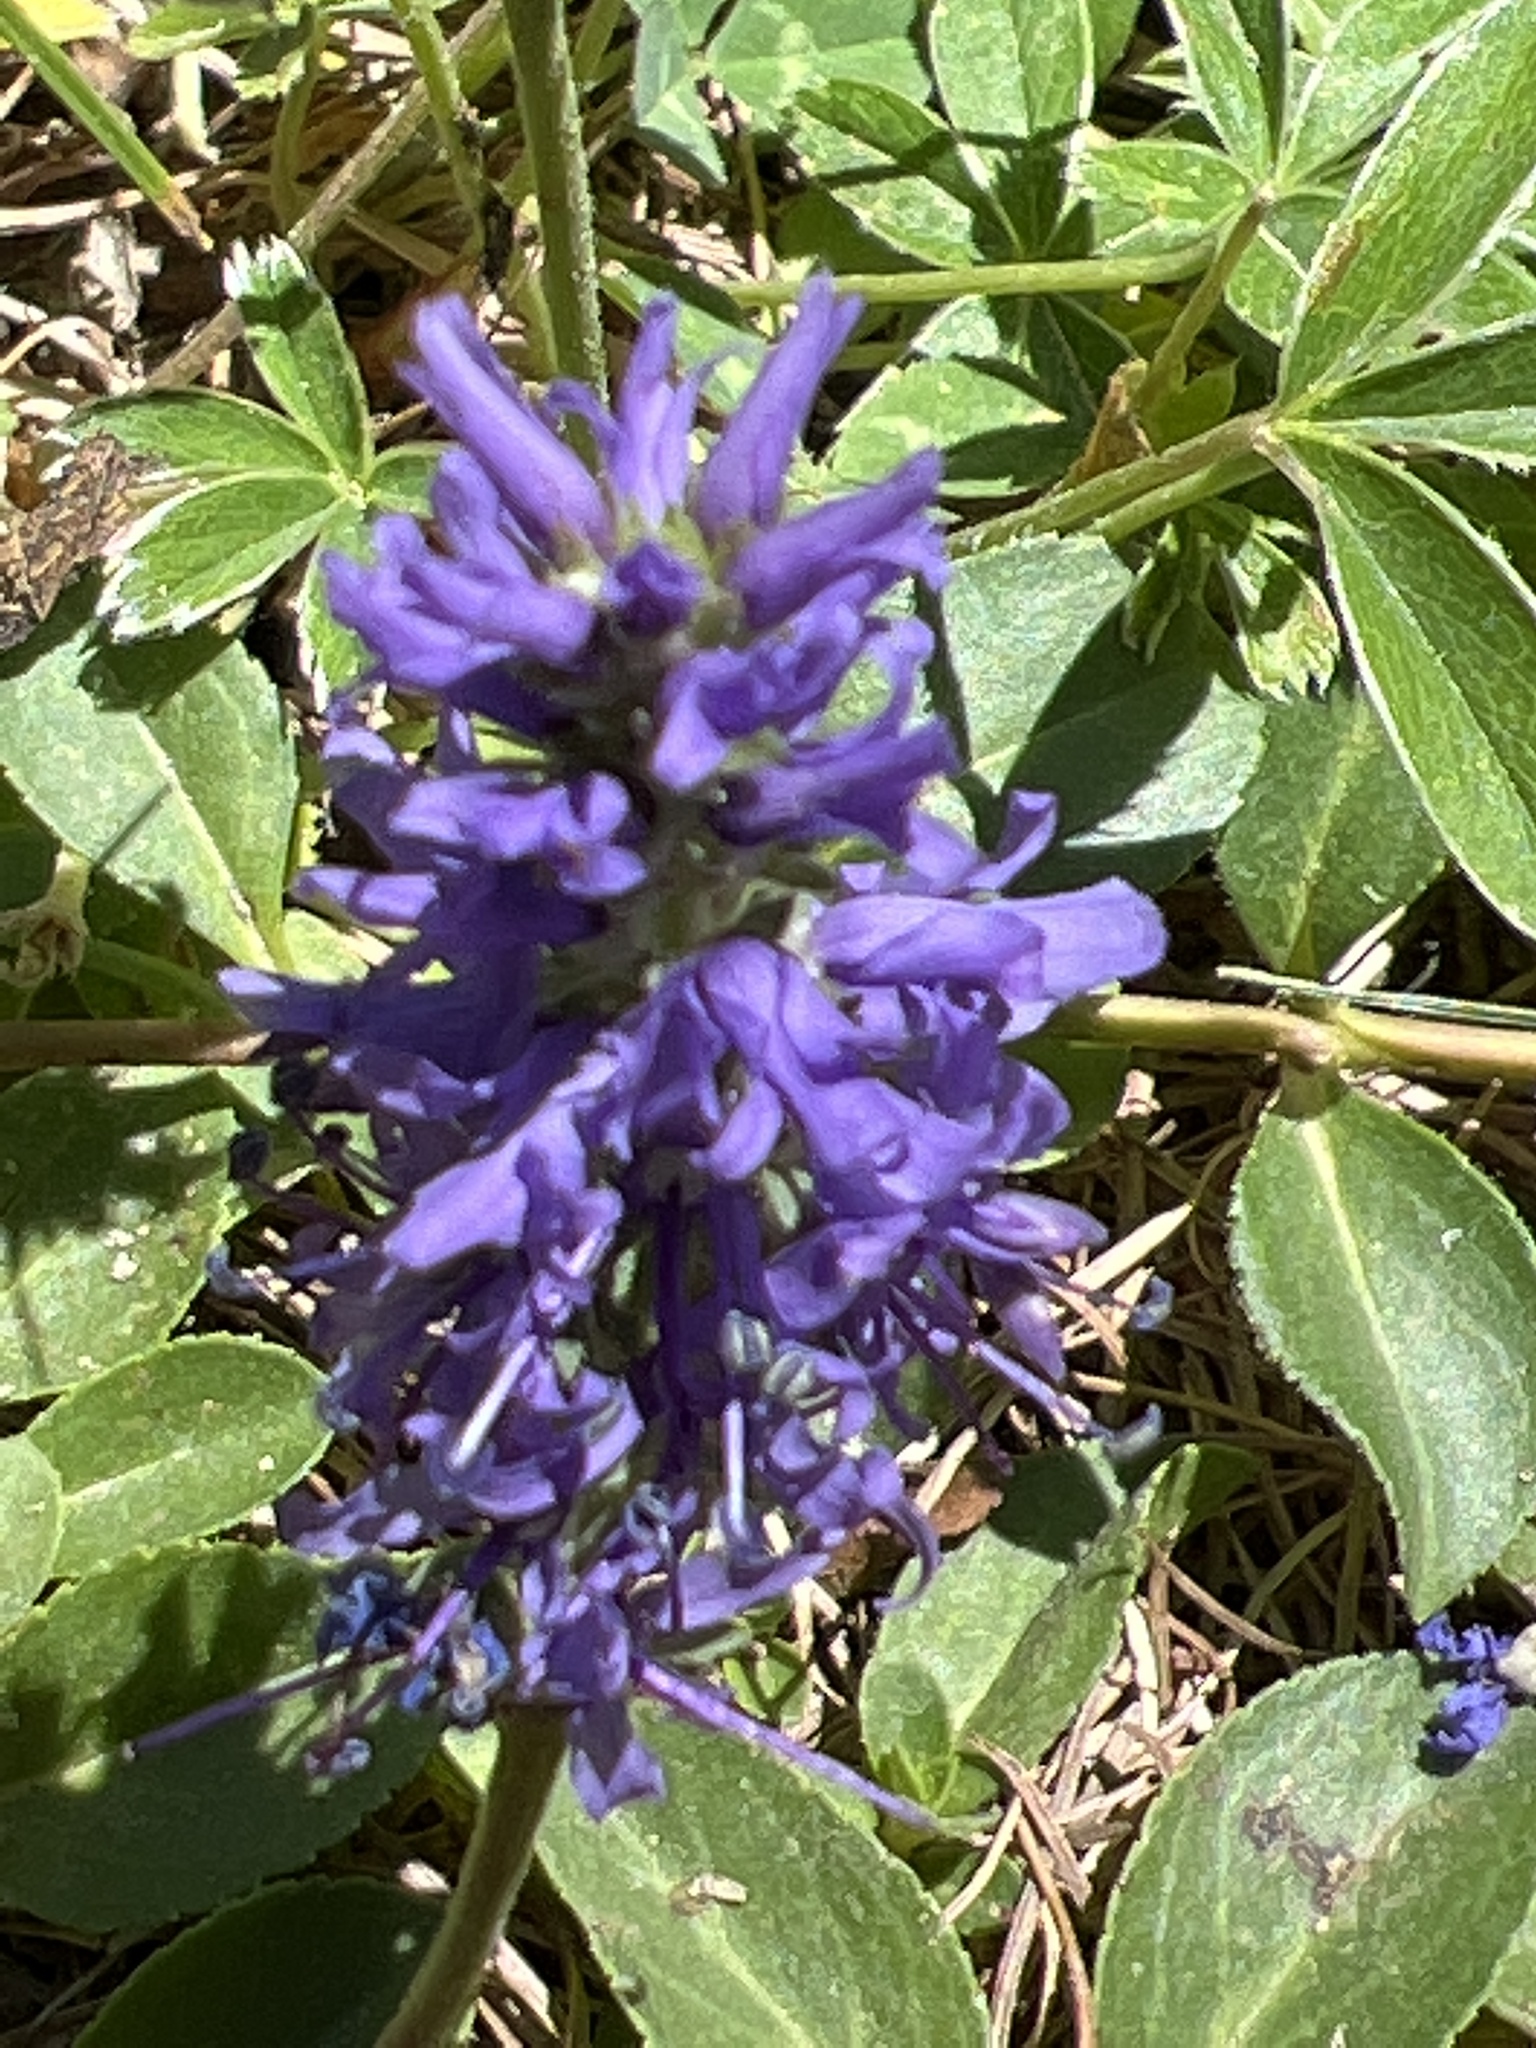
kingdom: Plantae
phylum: Tracheophyta
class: Magnoliopsida
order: Lamiales
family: Plantaginaceae
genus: Veronica
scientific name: Veronica allionii
